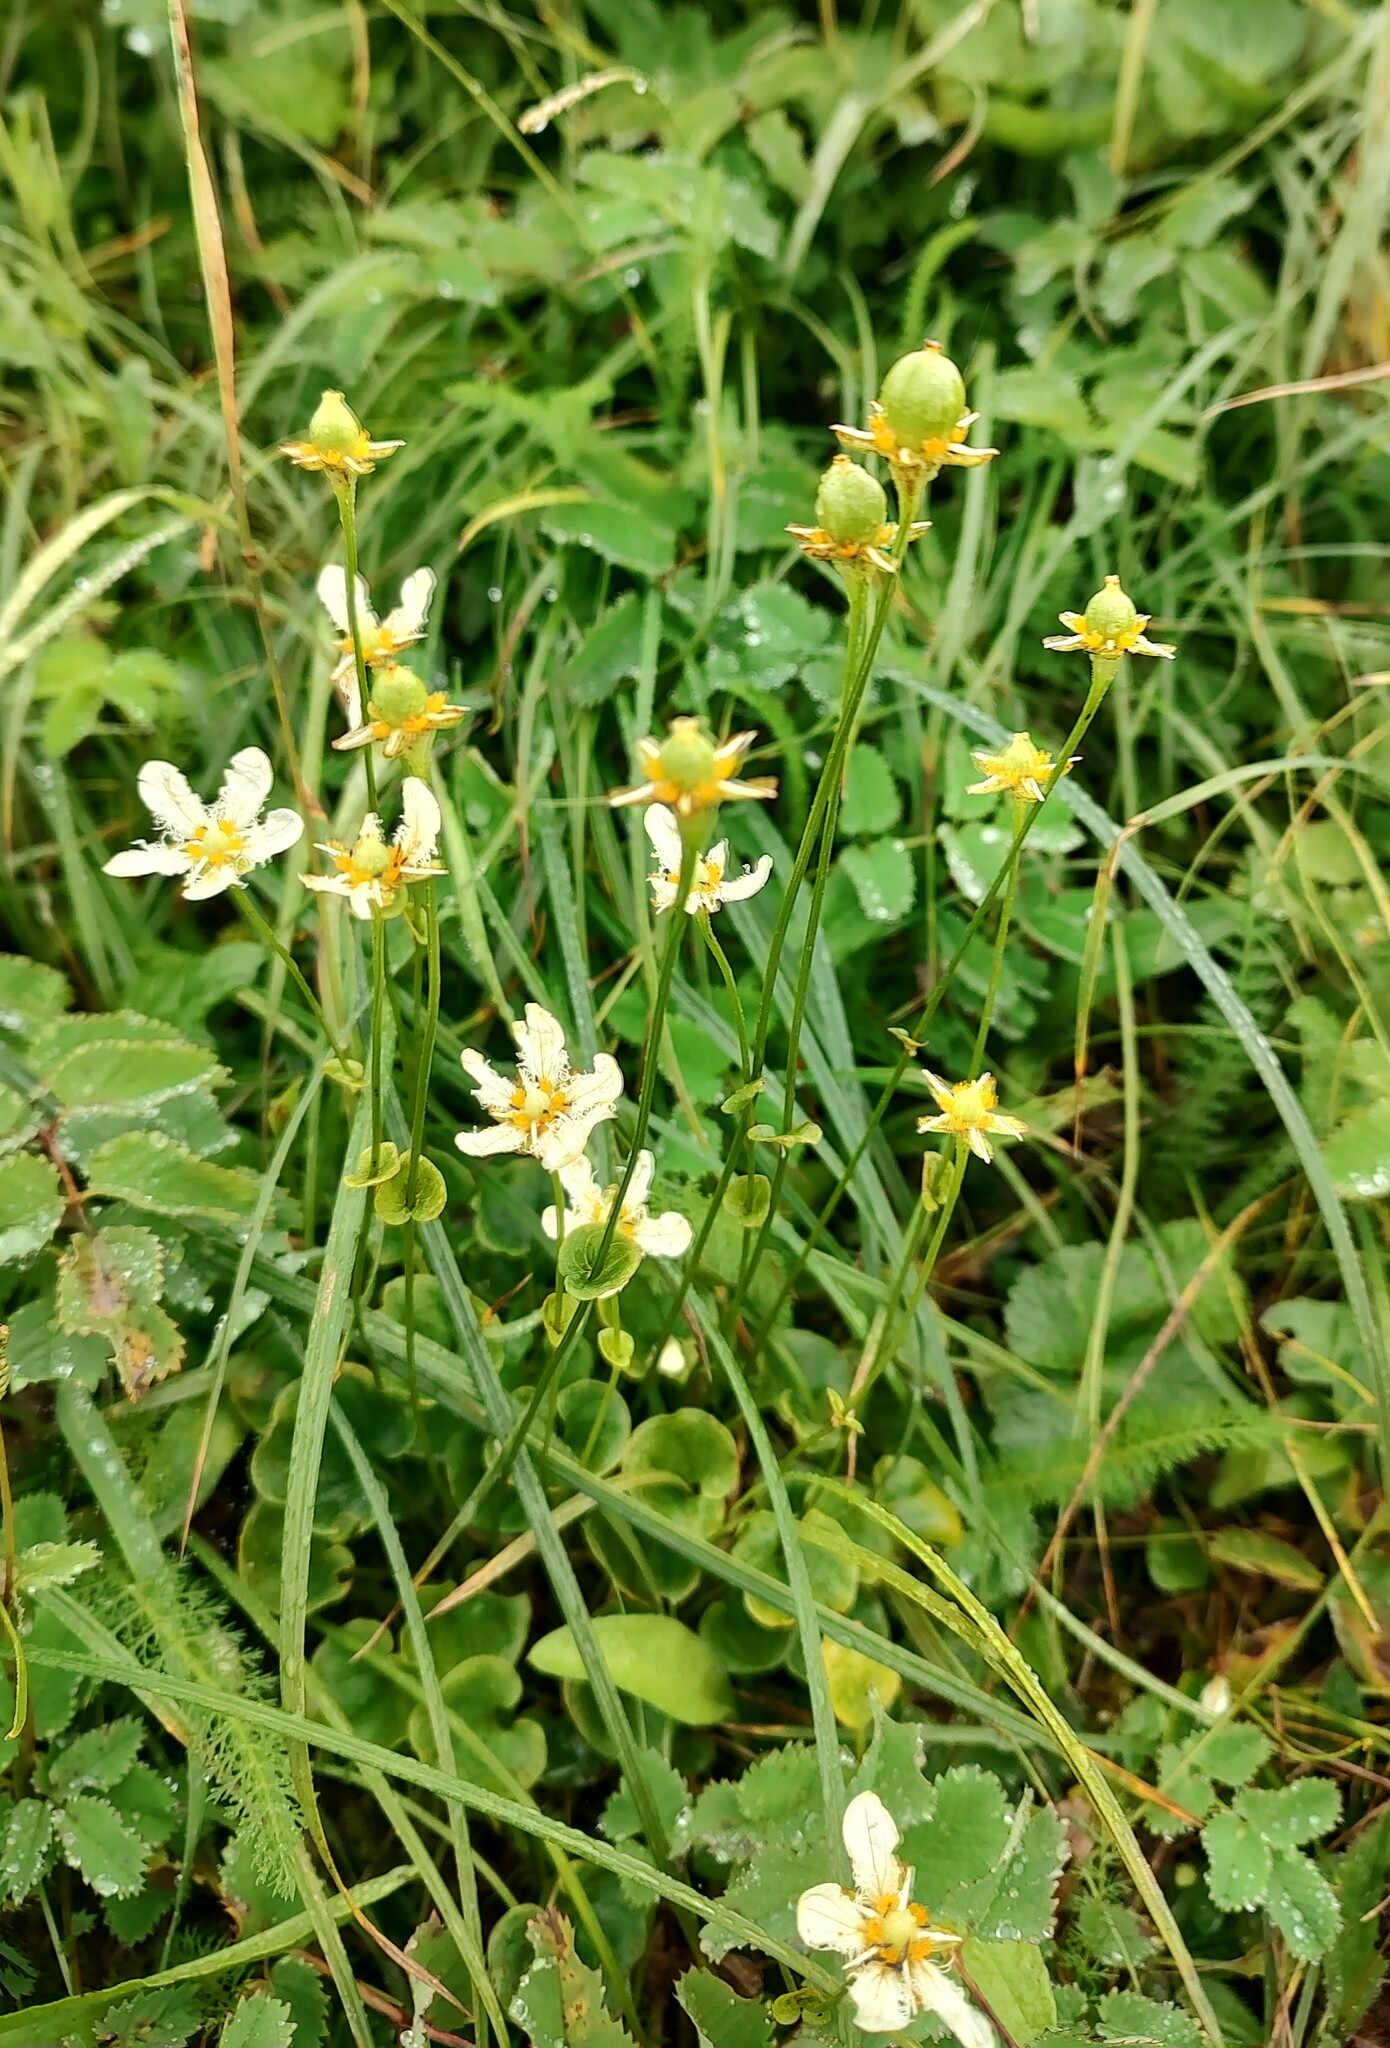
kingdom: Plantae
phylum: Tracheophyta
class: Magnoliopsida
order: Celastrales
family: Parnassiaceae
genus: Parnassia
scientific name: Parnassia fimbriata
